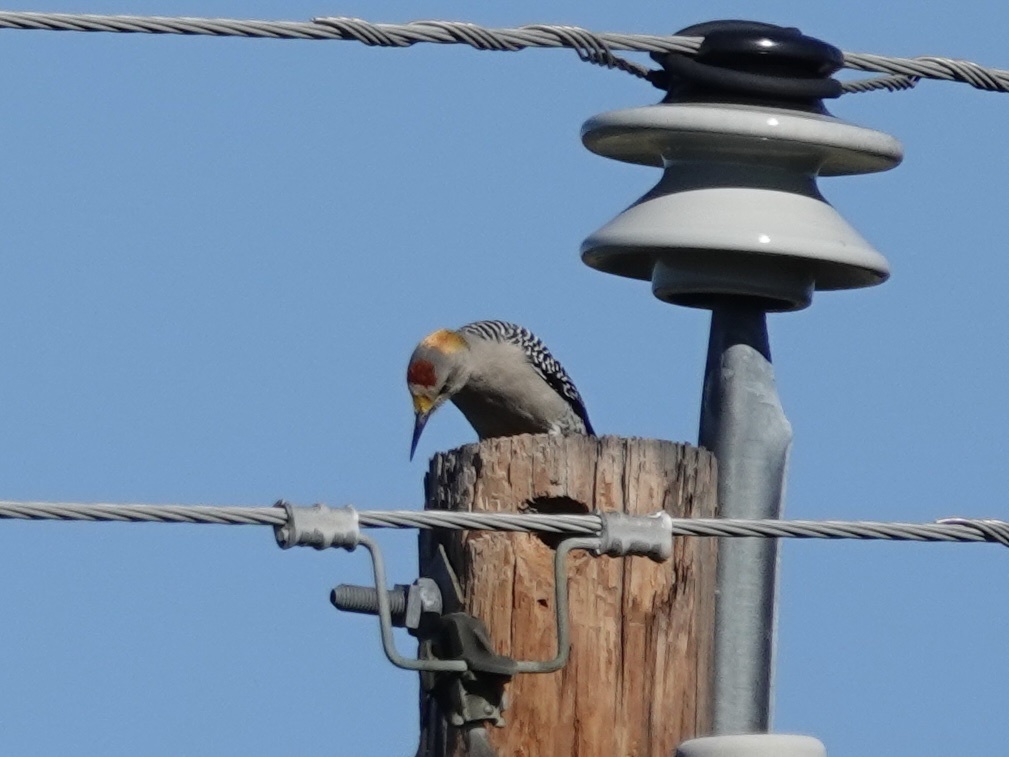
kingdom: Animalia
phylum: Chordata
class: Aves
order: Piciformes
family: Picidae
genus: Melanerpes
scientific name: Melanerpes aurifrons
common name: Golden-fronted woodpecker
